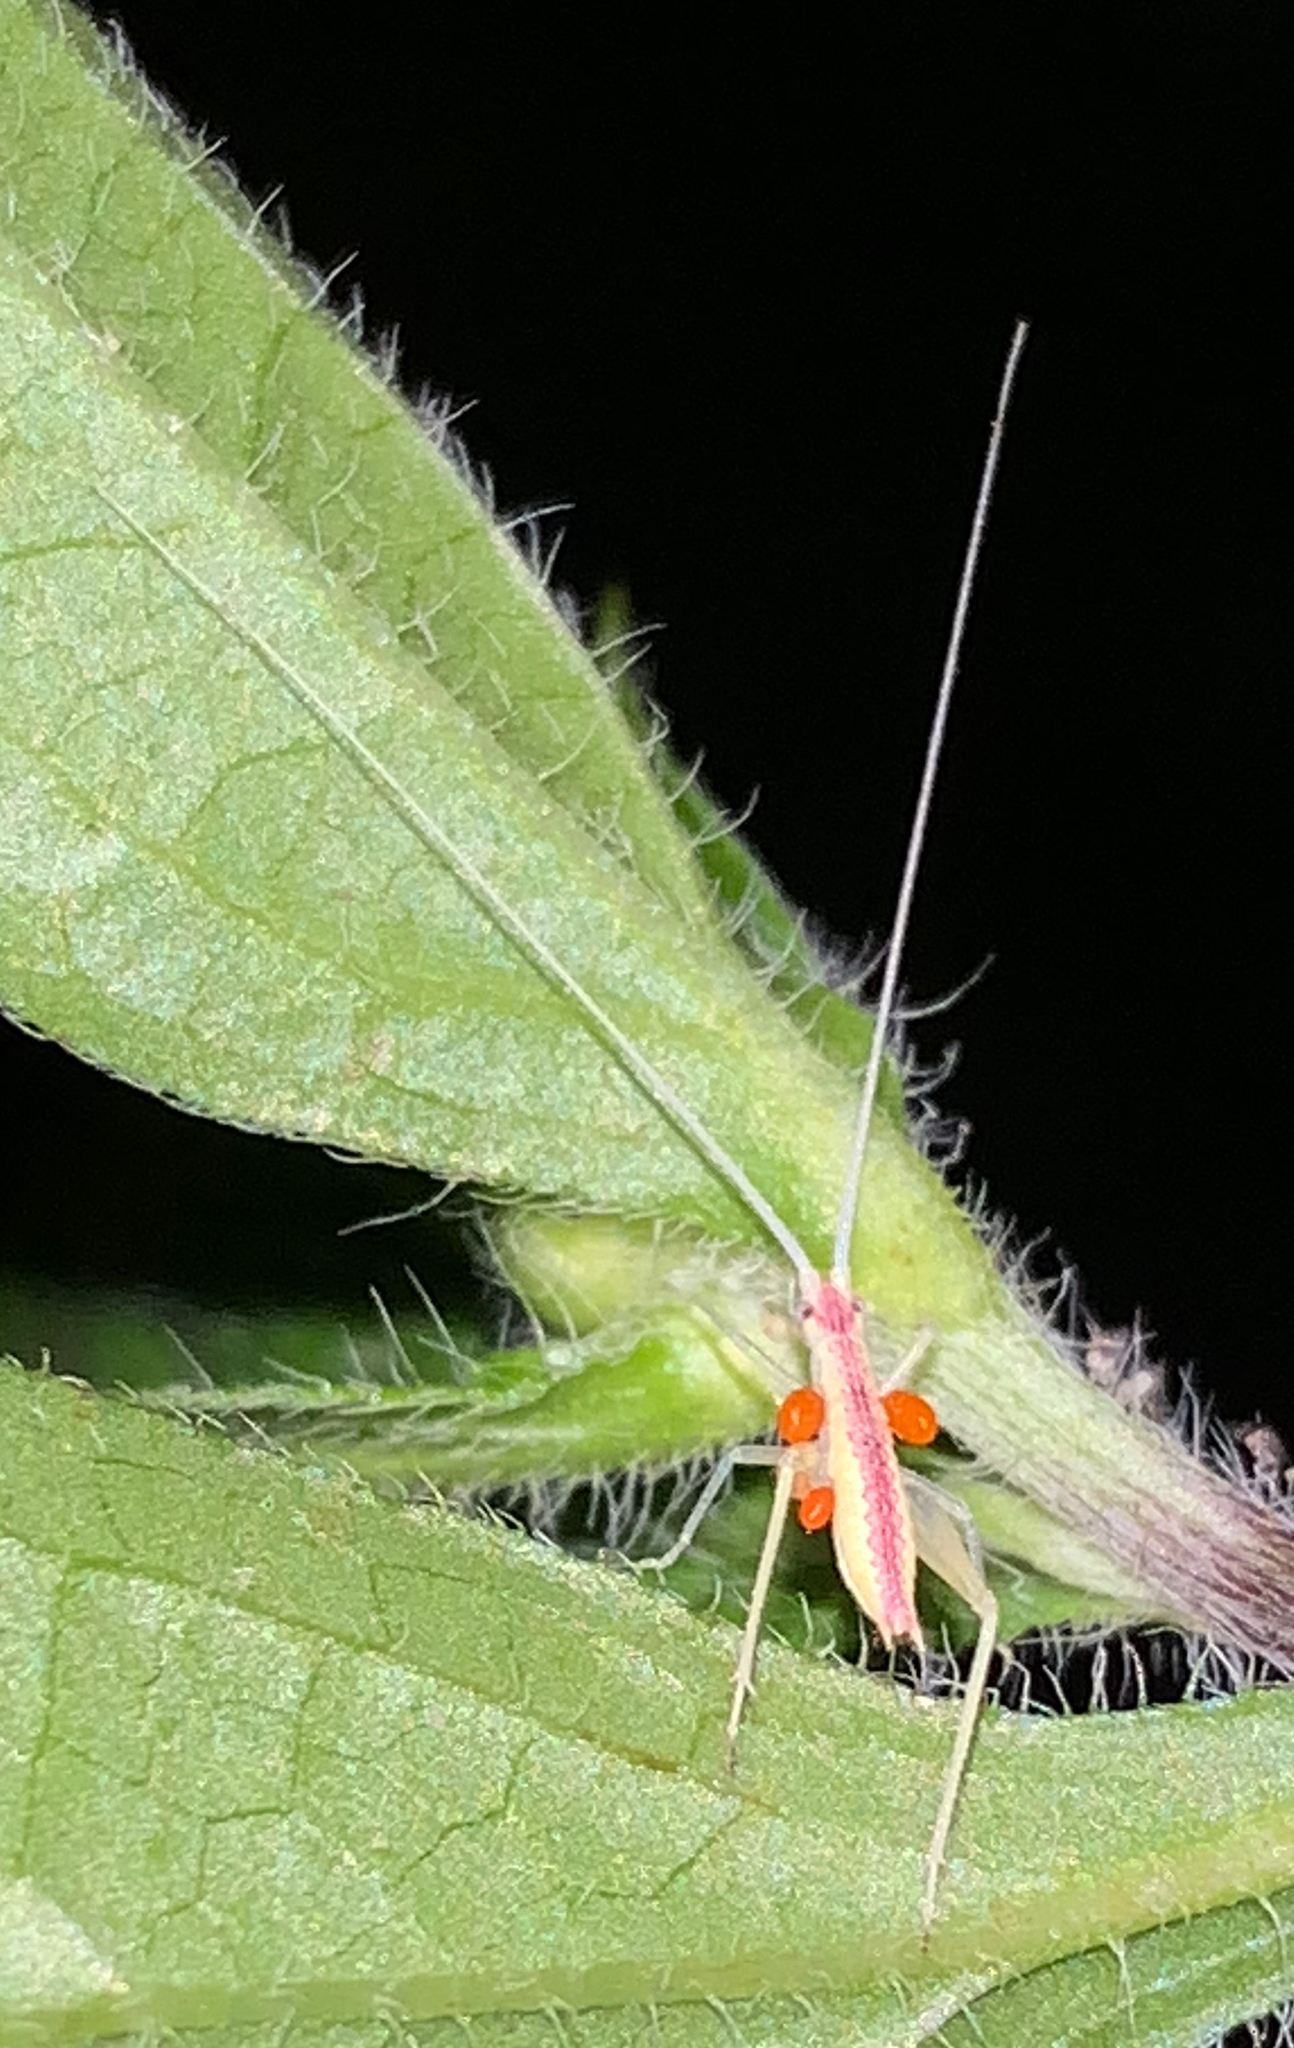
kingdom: Animalia
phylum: Arthropoda
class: Insecta
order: Orthoptera
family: Gryllidae
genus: Oecanthus
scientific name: Oecanthus latipennis
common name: Broad-winged tree cricket
